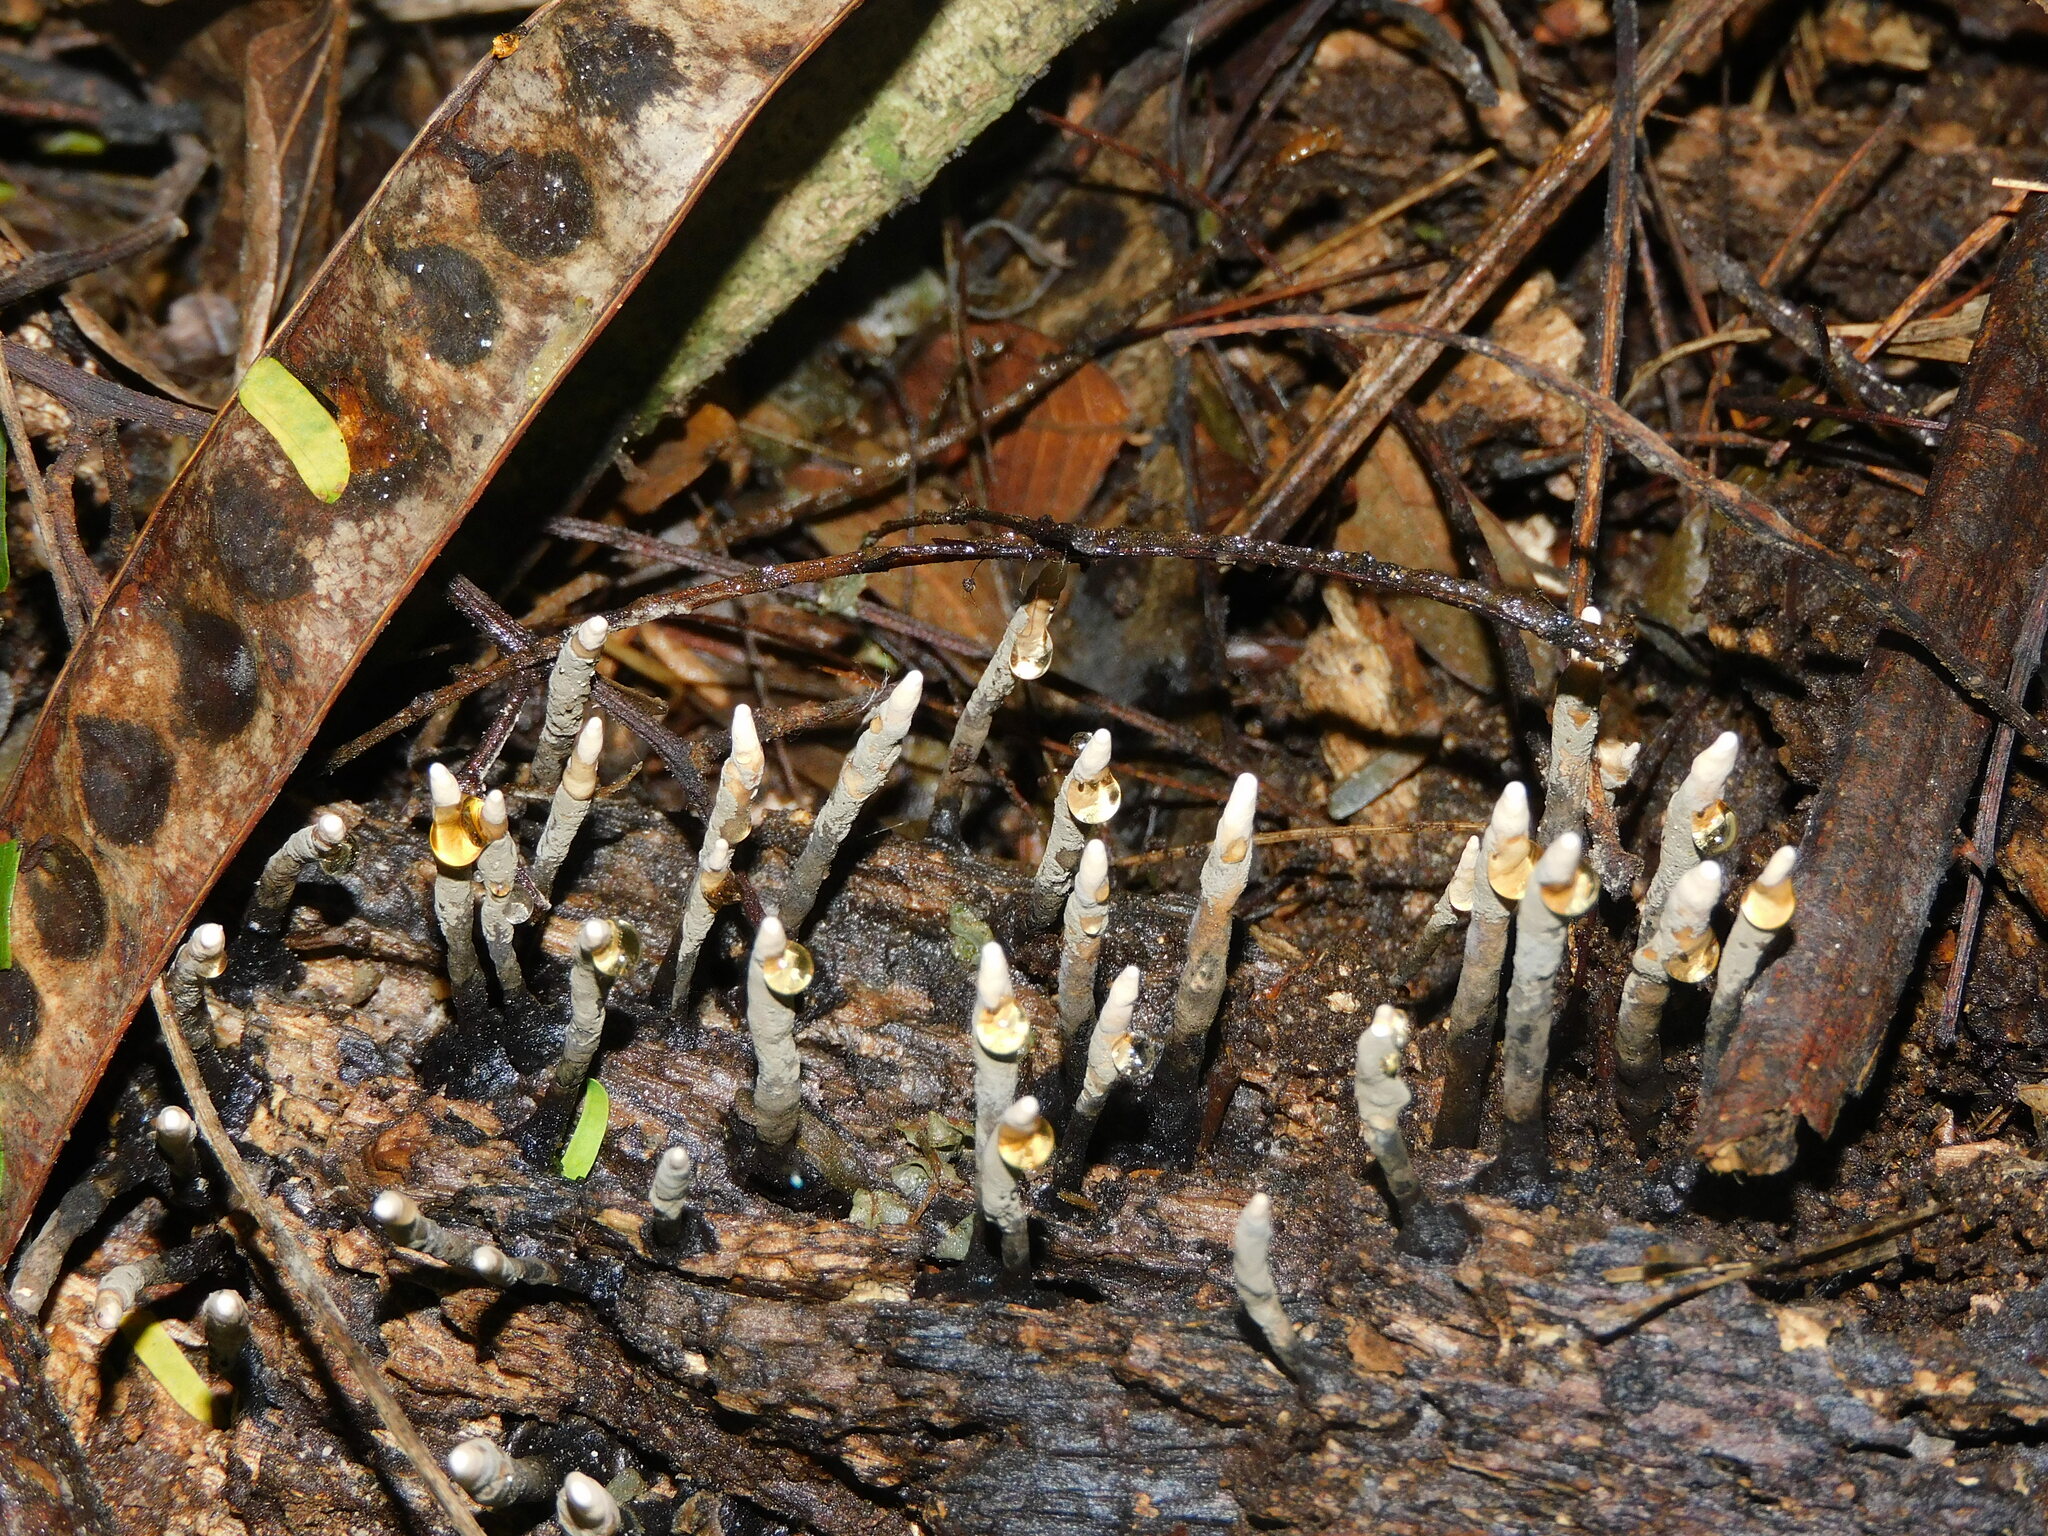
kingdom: Fungi
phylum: Ascomycota
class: Sordariomycetes
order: Xylariales
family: Xylariaceae
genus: Xylaria
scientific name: Xylaria polymorpha
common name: Dead man's fingers
